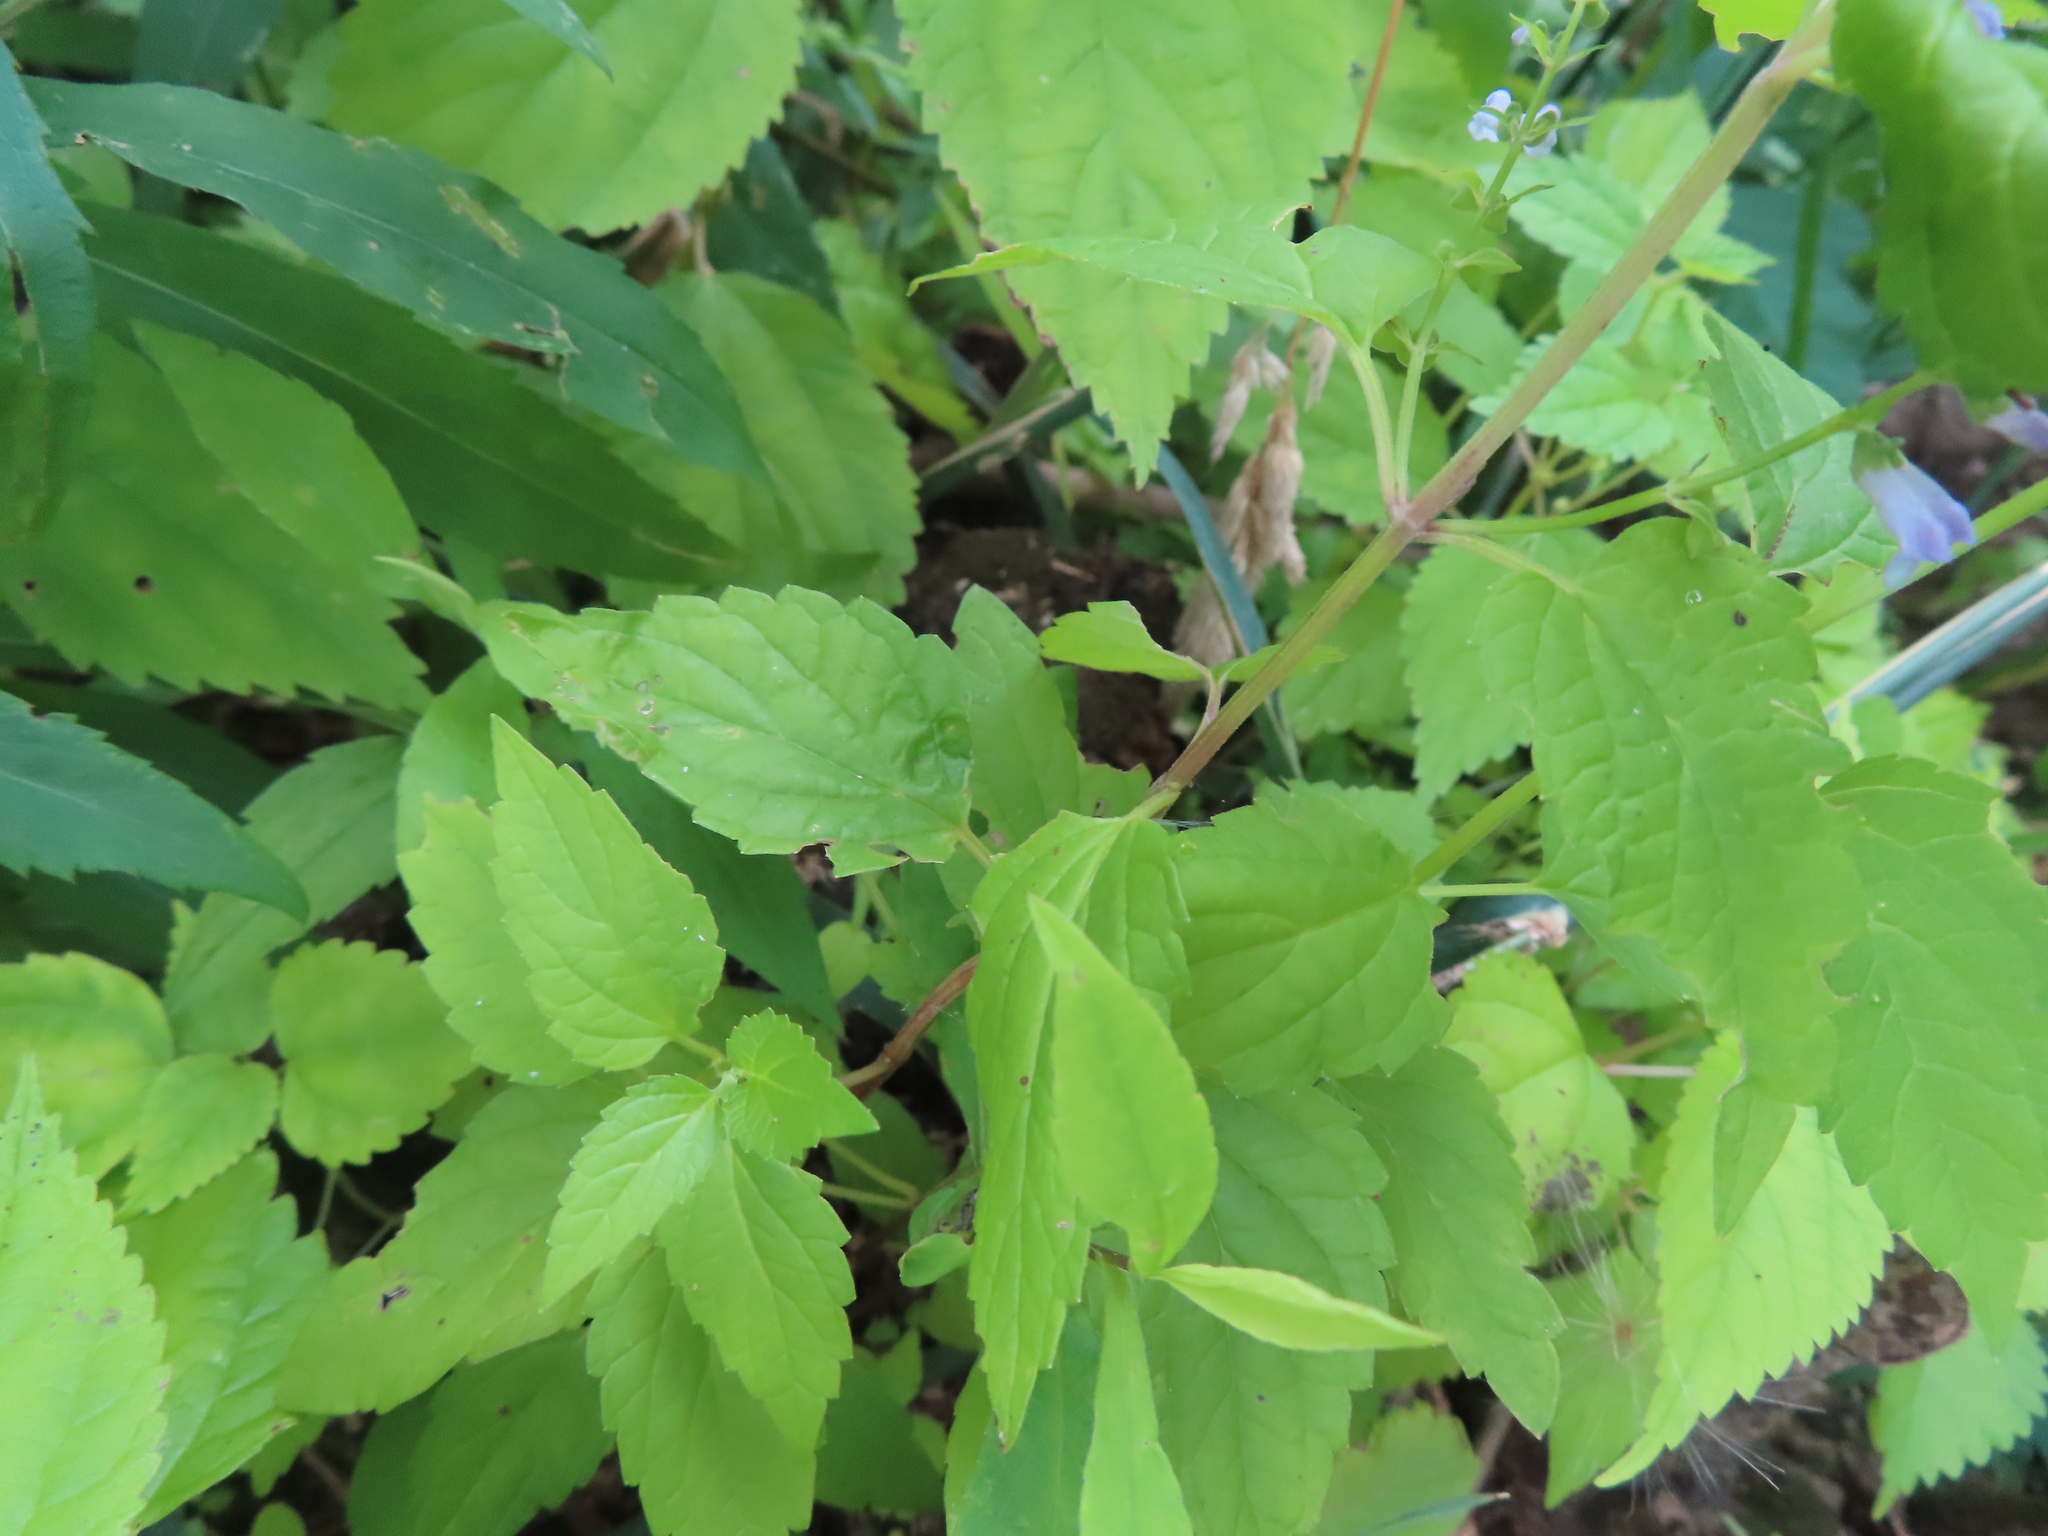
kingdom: Plantae
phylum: Tracheophyta
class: Magnoliopsida
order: Lamiales
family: Lamiaceae
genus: Scutellaria
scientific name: Scutellaria lateriflora
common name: Blue skullcap
